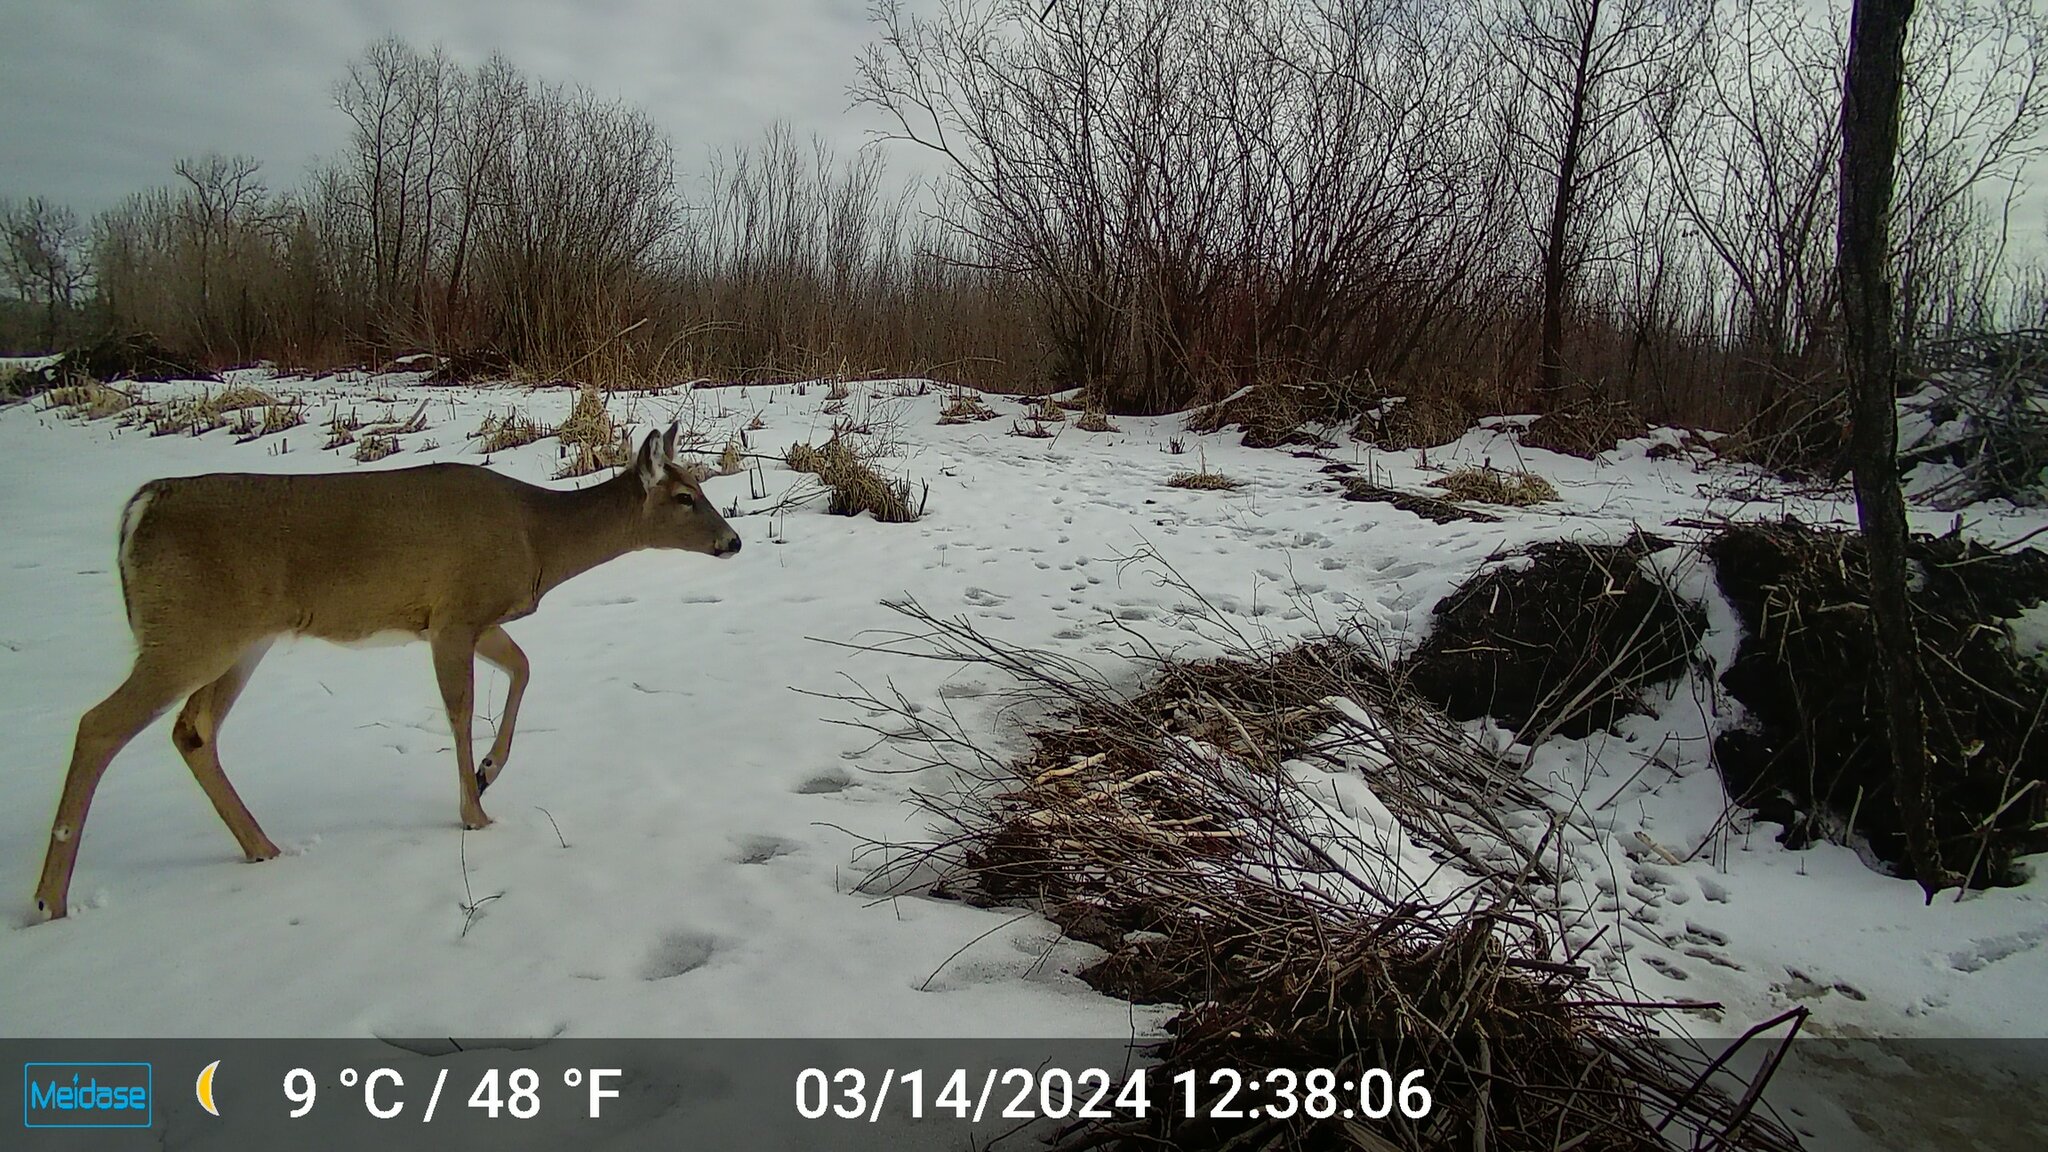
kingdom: Animalia
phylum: Chordata
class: Mammalia
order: Artiodactyla
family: Cervidae
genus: Odocoileus
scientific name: Odocoileus virginianus
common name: White-tailed deer
